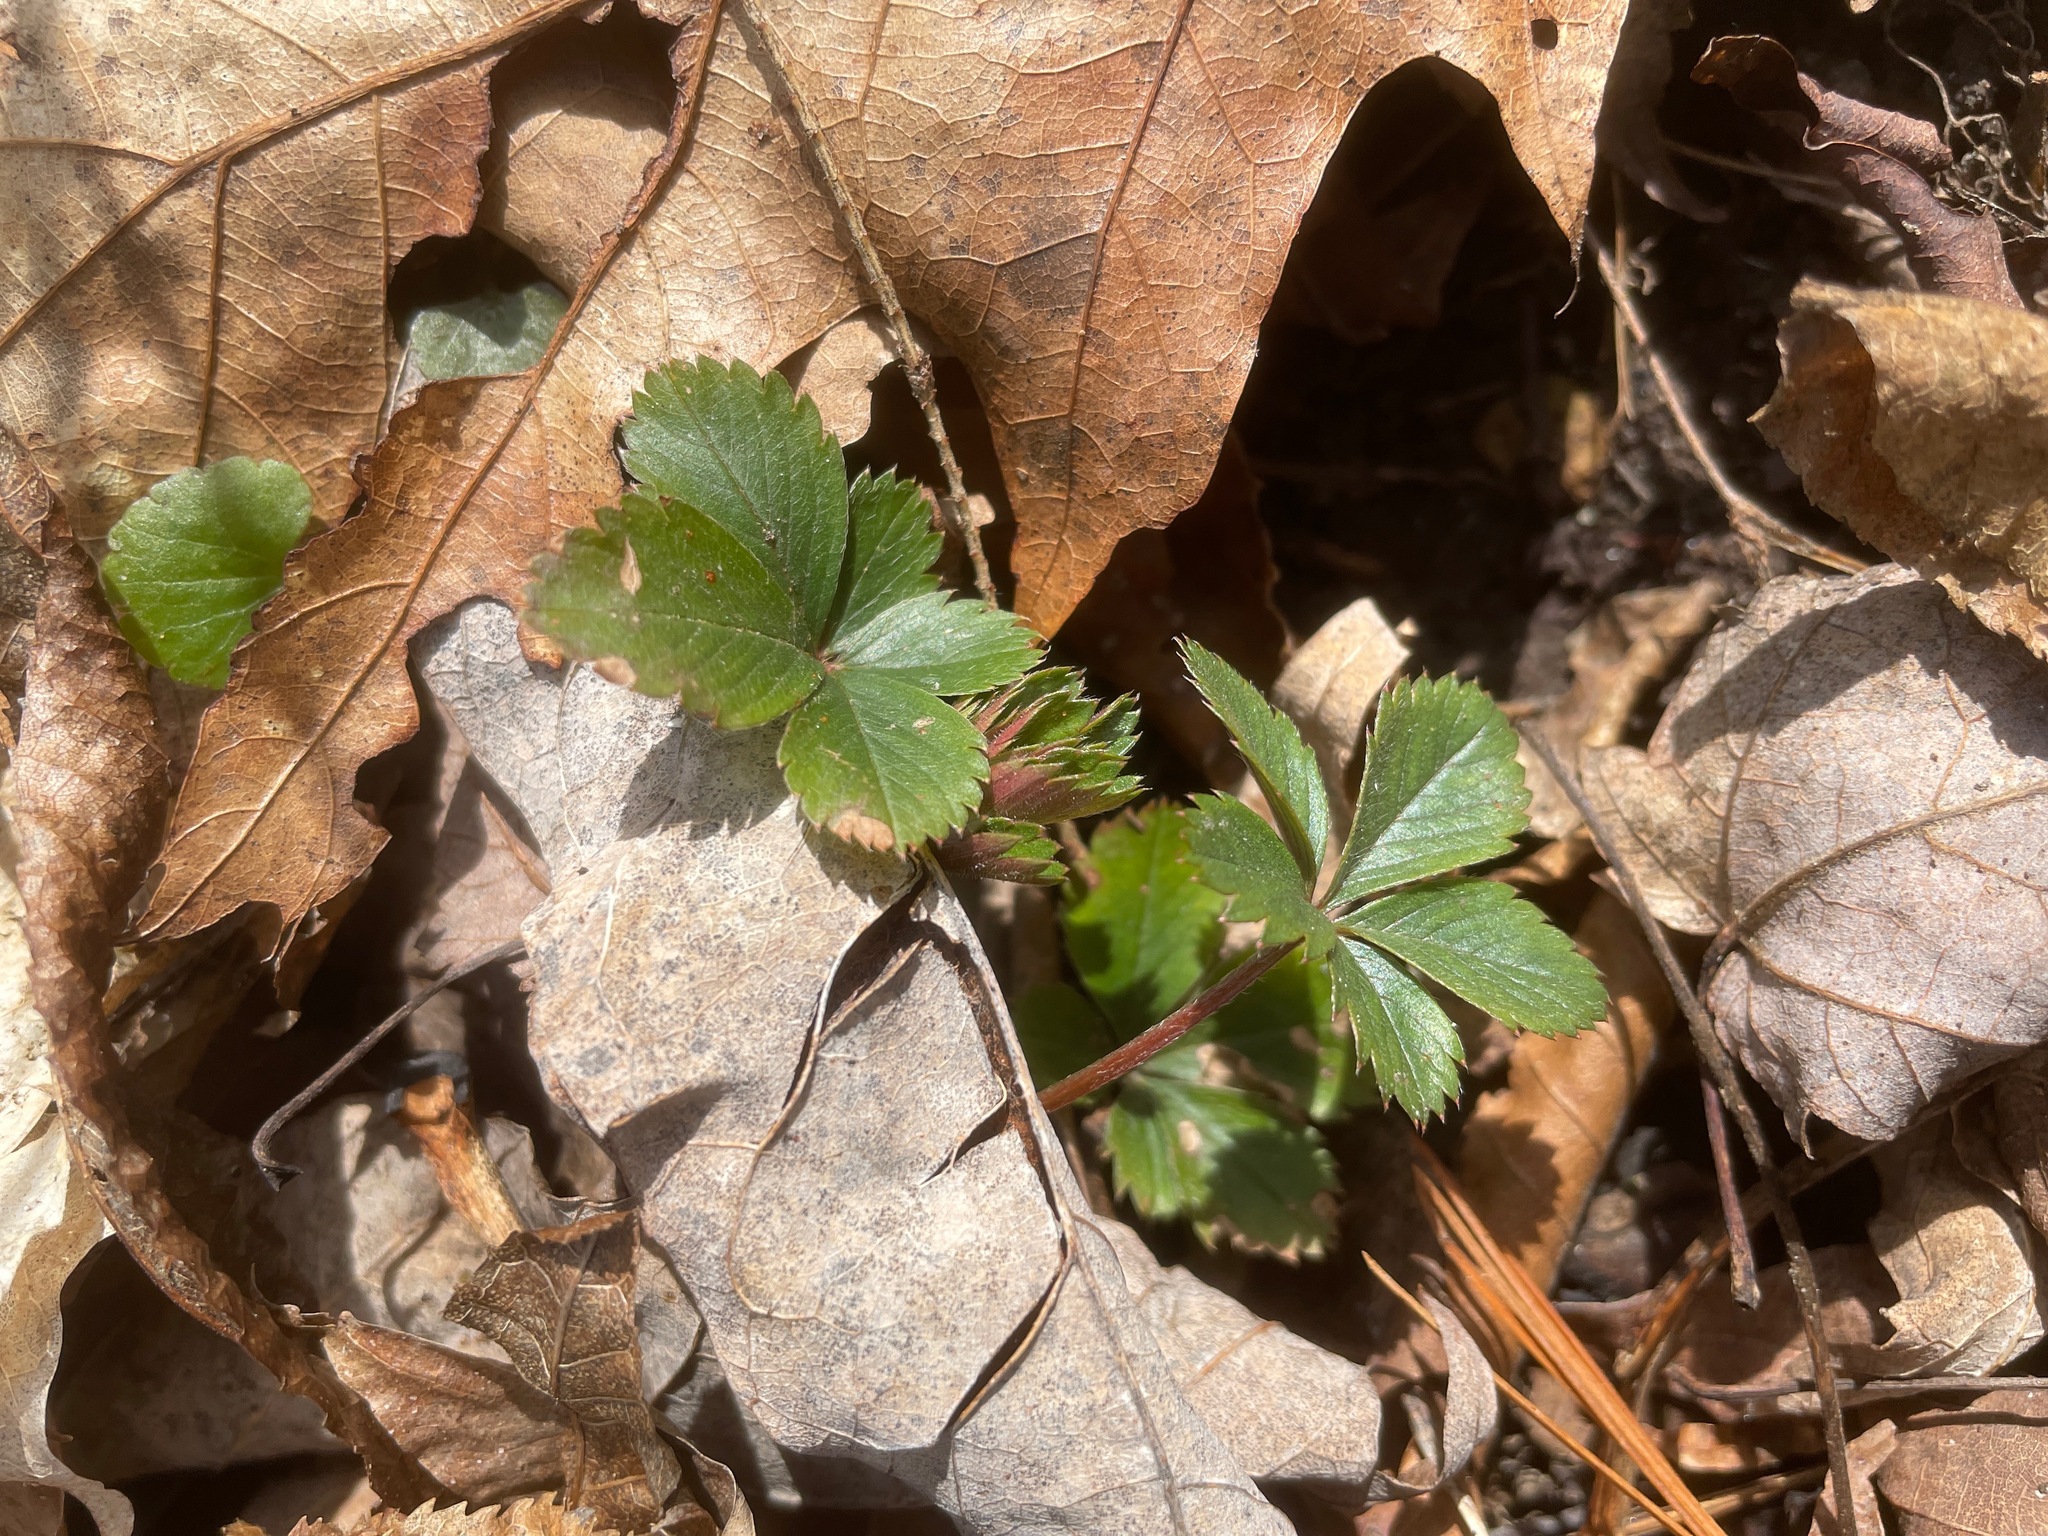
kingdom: Plantae
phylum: Tracheophyta
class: Magnoliopsida
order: Rosales
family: Rosaceae
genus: Potentilla
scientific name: Potentilla canadensis
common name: Canada cinquefoil
